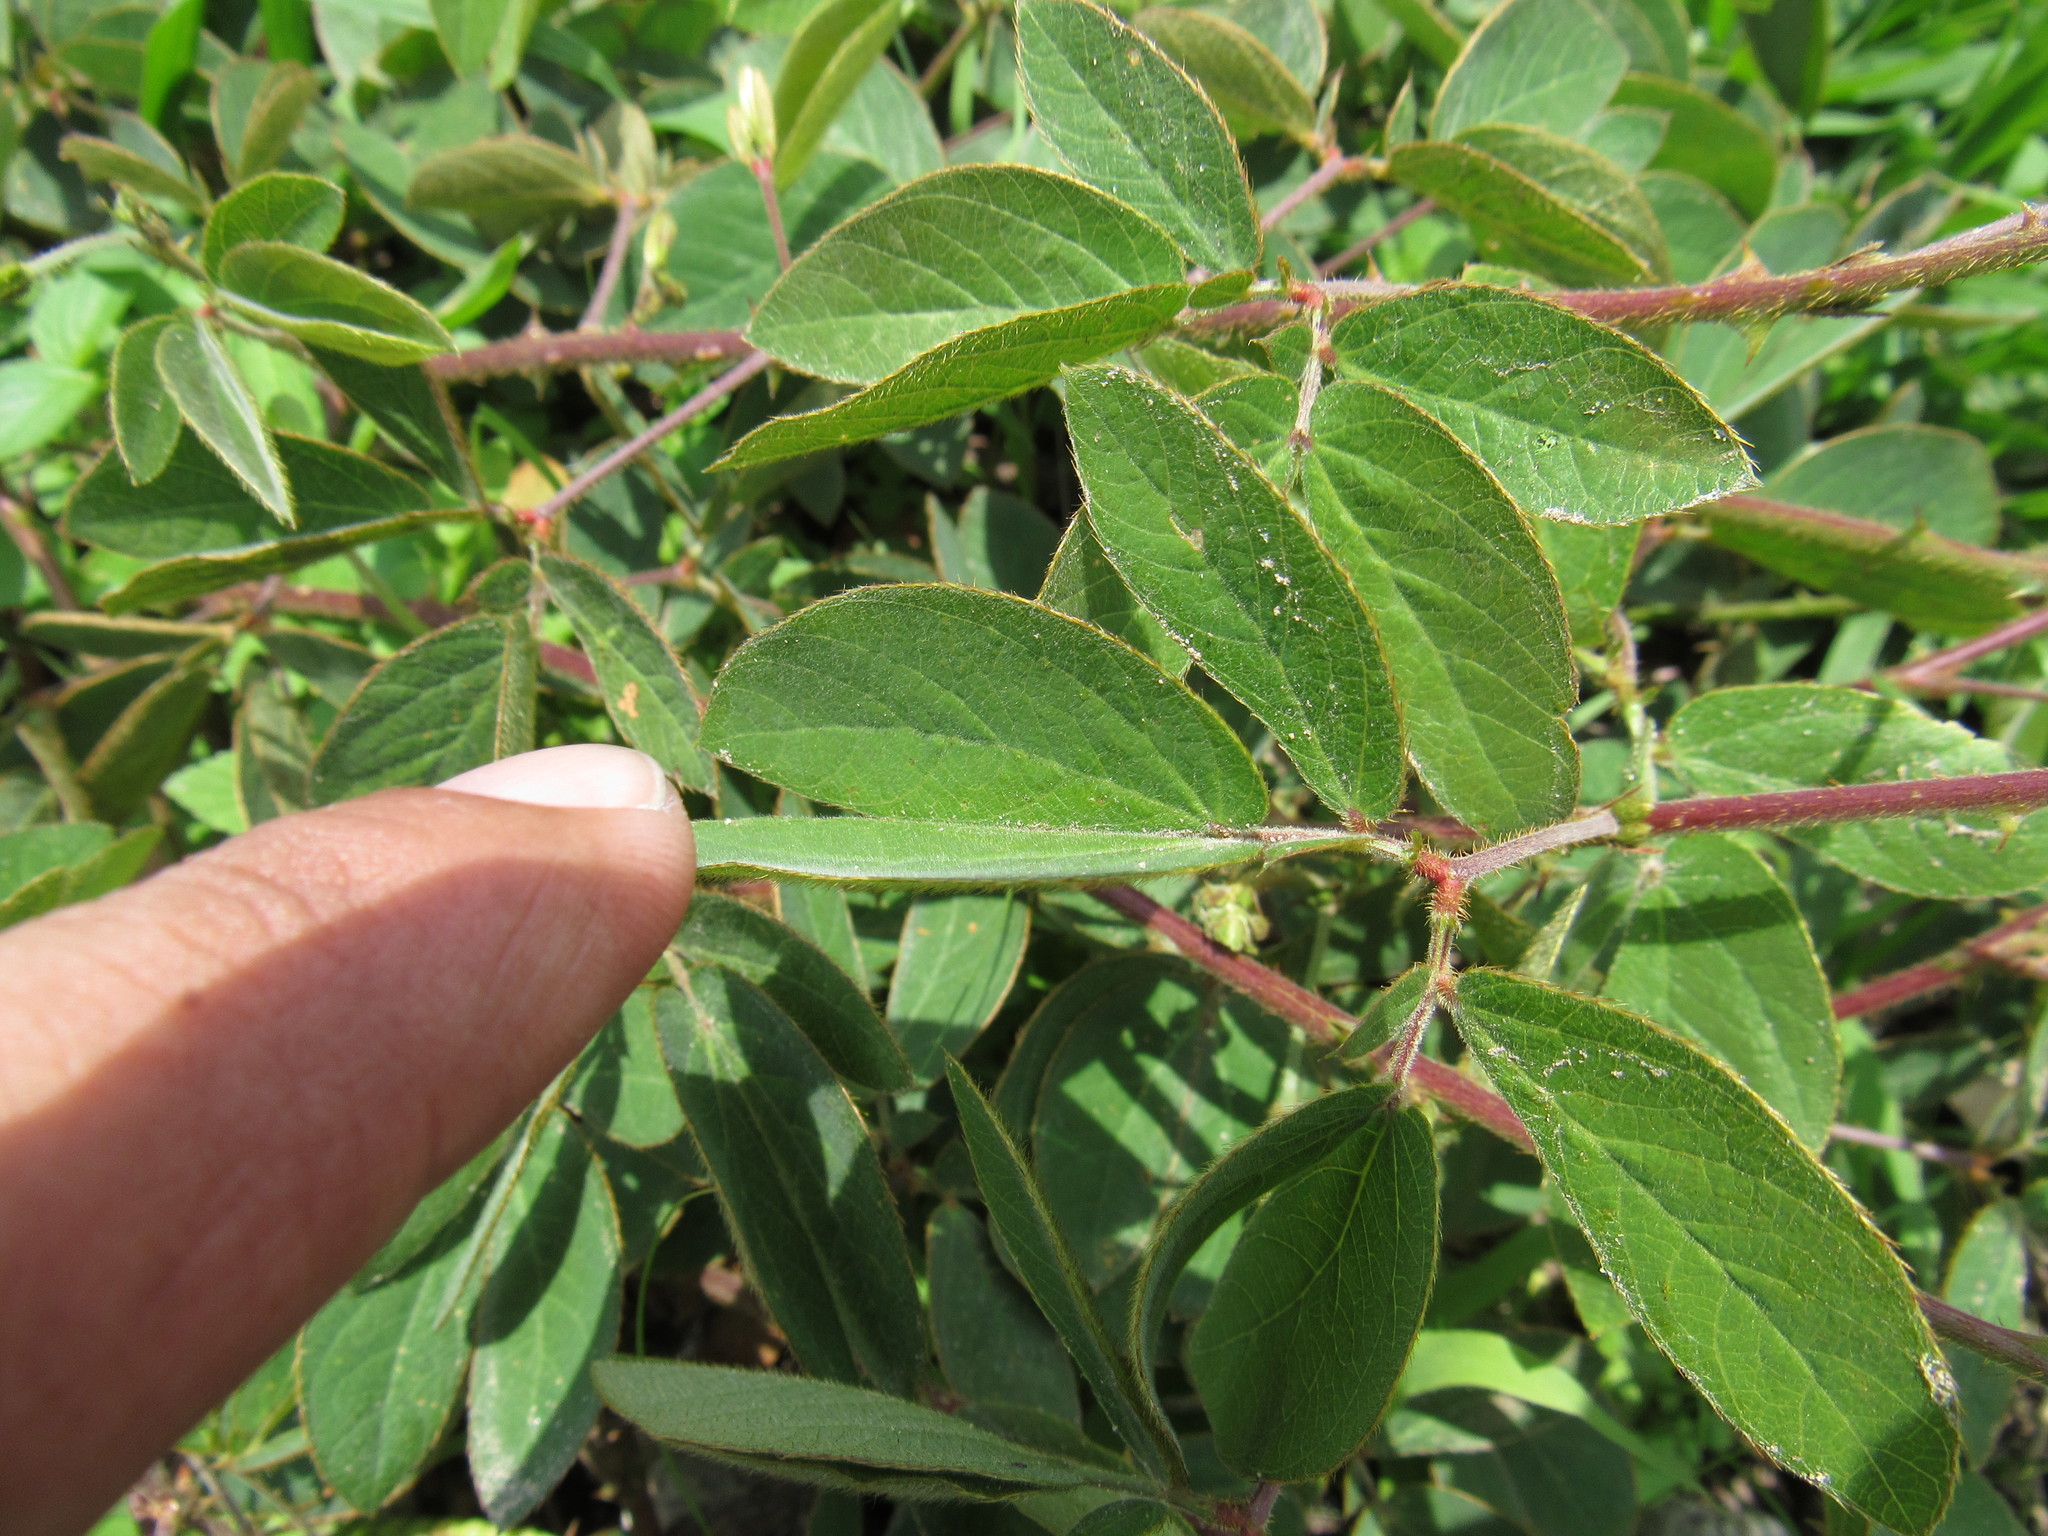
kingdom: Plantae
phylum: Tracheophyta
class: Magnoliopsida
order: Fabales
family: Fabaceae
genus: Mimosa
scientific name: Mimosa albida
